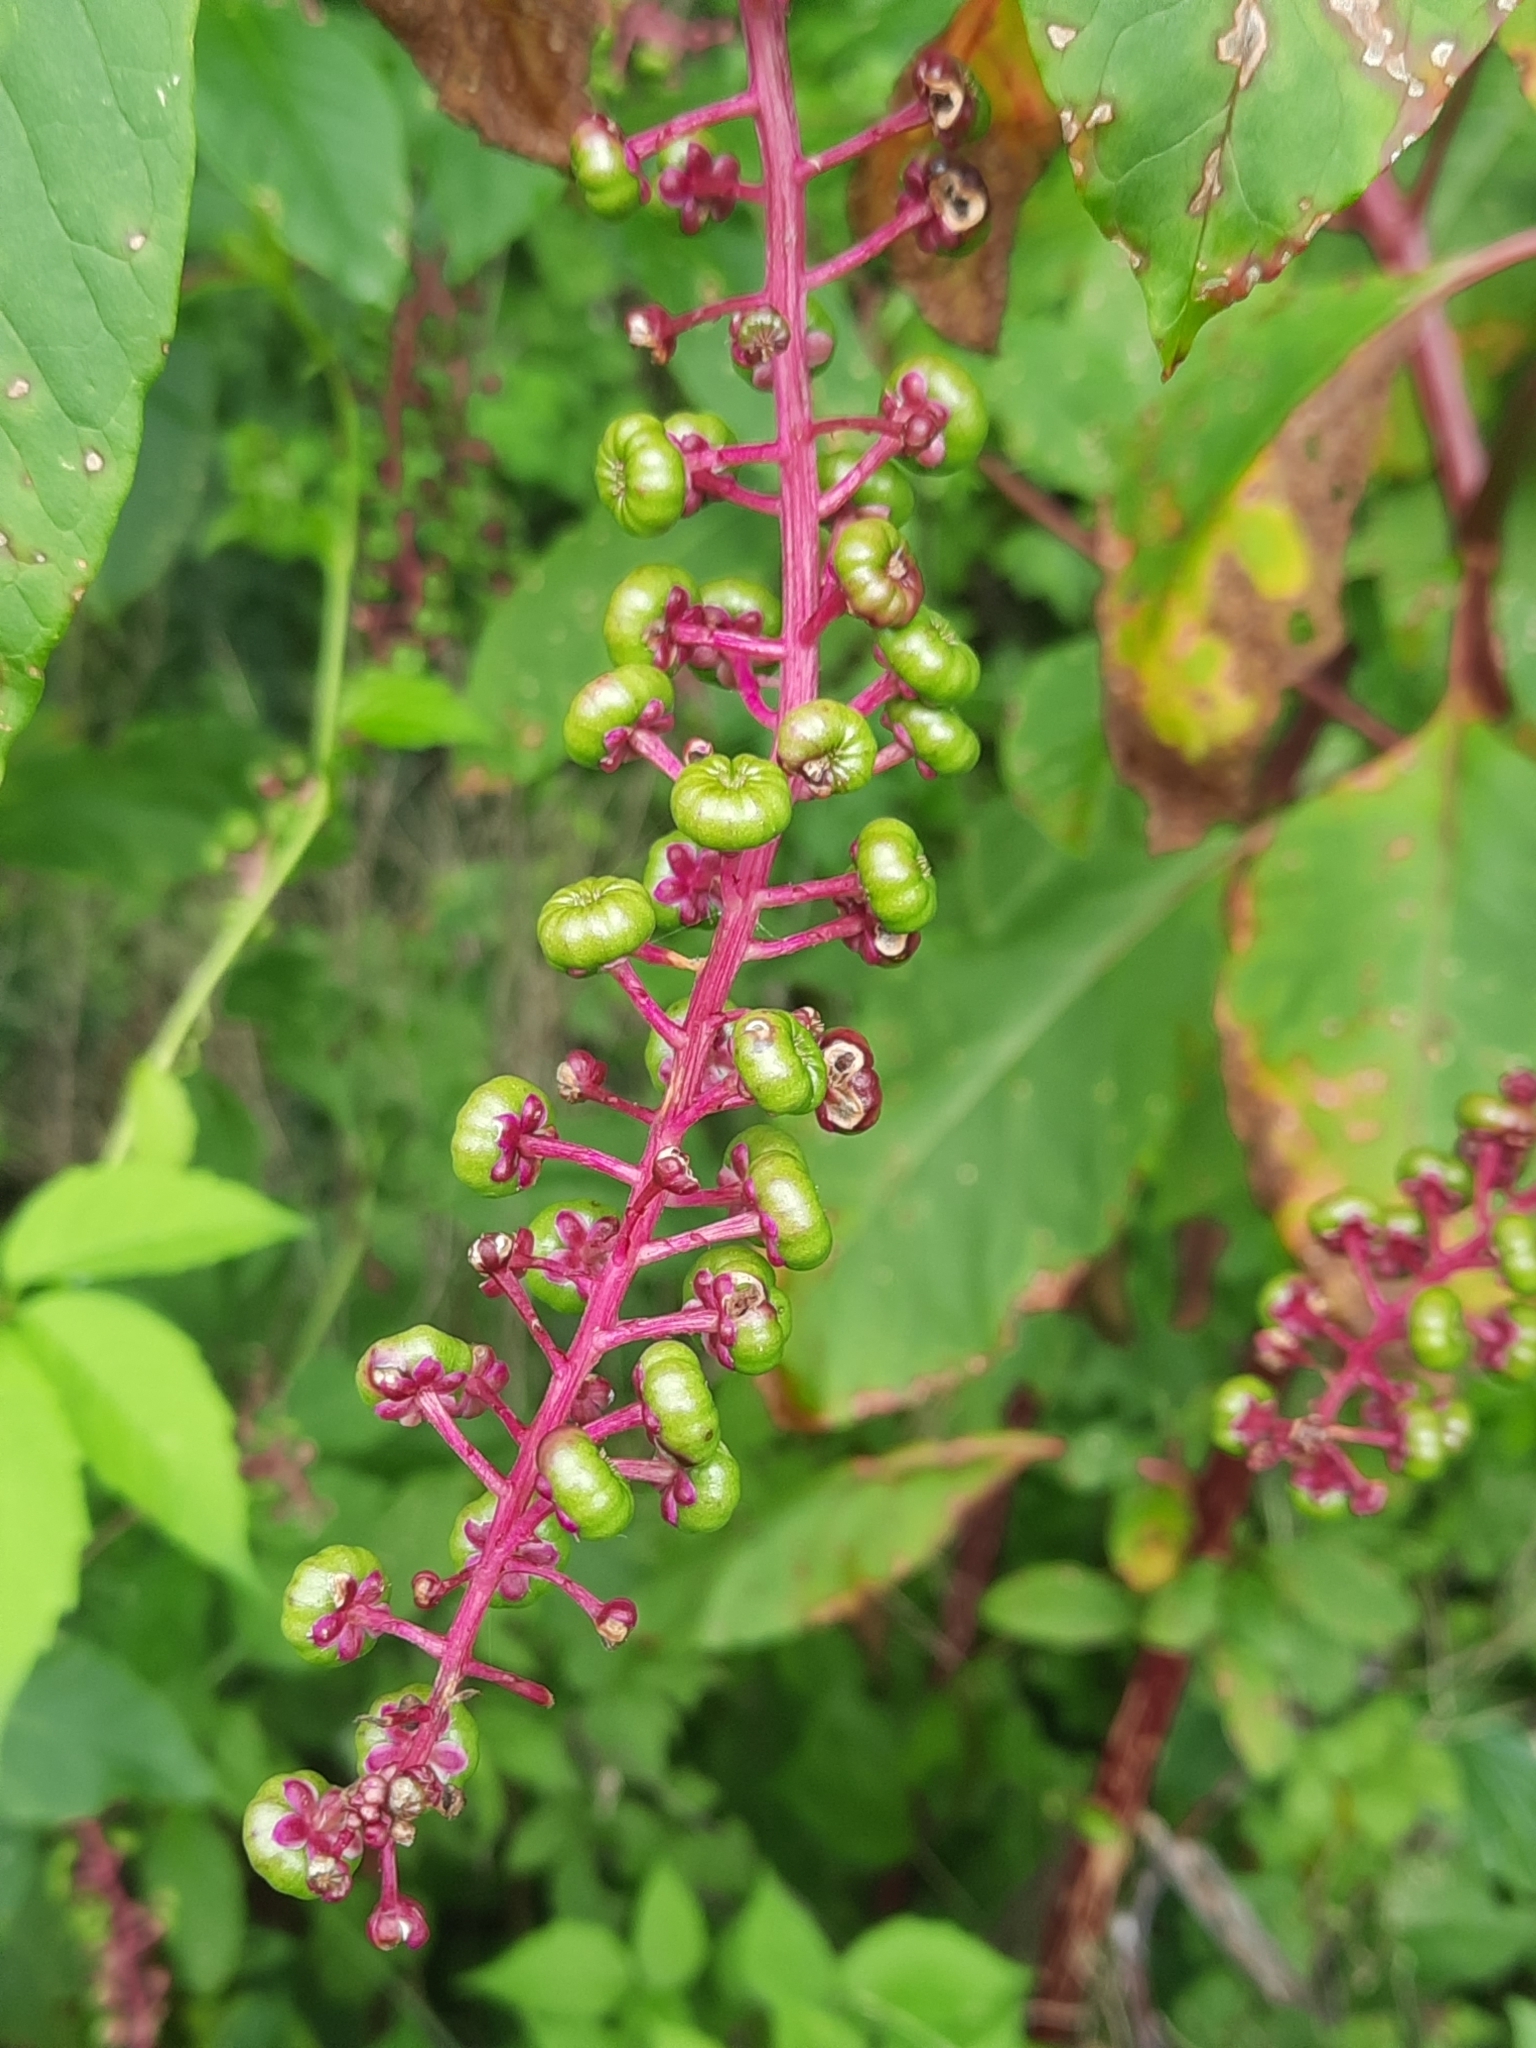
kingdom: Plantae
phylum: Tracheophyta
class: Magnoliopsida
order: Caryophyllales
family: Phytolaccaceae
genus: Phytolacca
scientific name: Phytolacca americana
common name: American pokeweed
